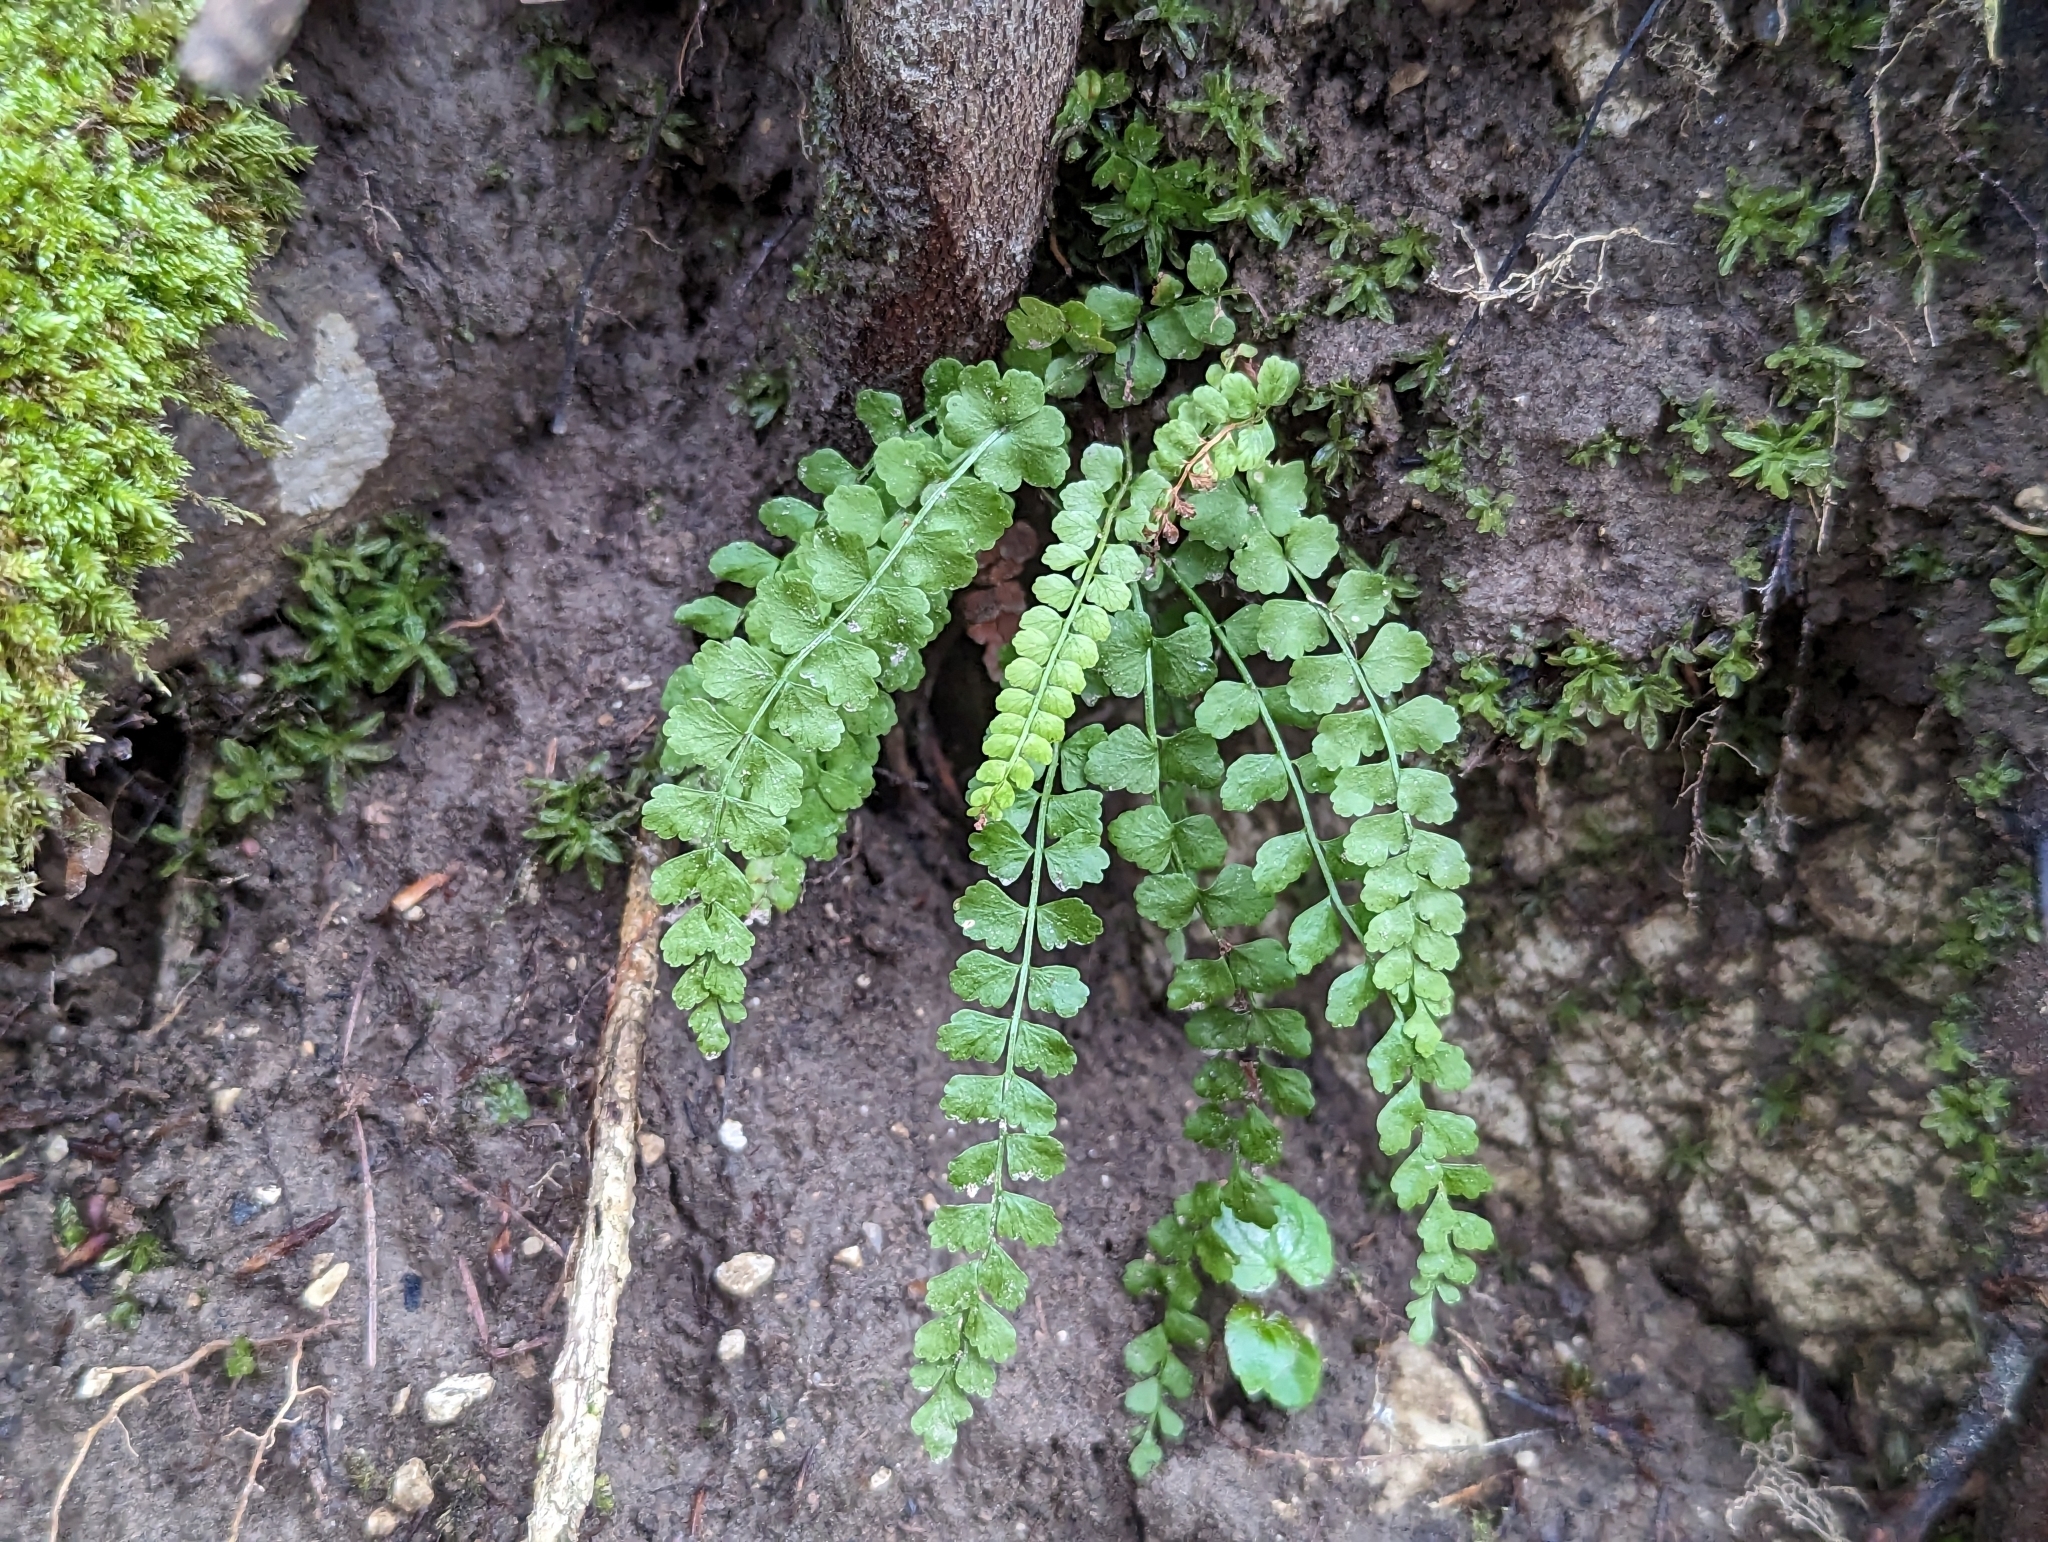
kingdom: Plantae
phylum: Tracheophyta
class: Polypodiopsida
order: Polypodiales
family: Aspleniaceae
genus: Asplenium
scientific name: Asplenium viride
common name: Green spleenwort
